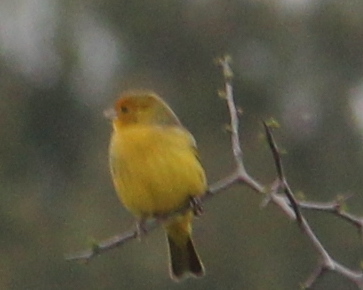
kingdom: Animalia
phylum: Chordata
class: Aves
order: Passeriformes
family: Thraupidae
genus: Sicalis
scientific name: Sicalis flaveola
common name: Saffron finch
